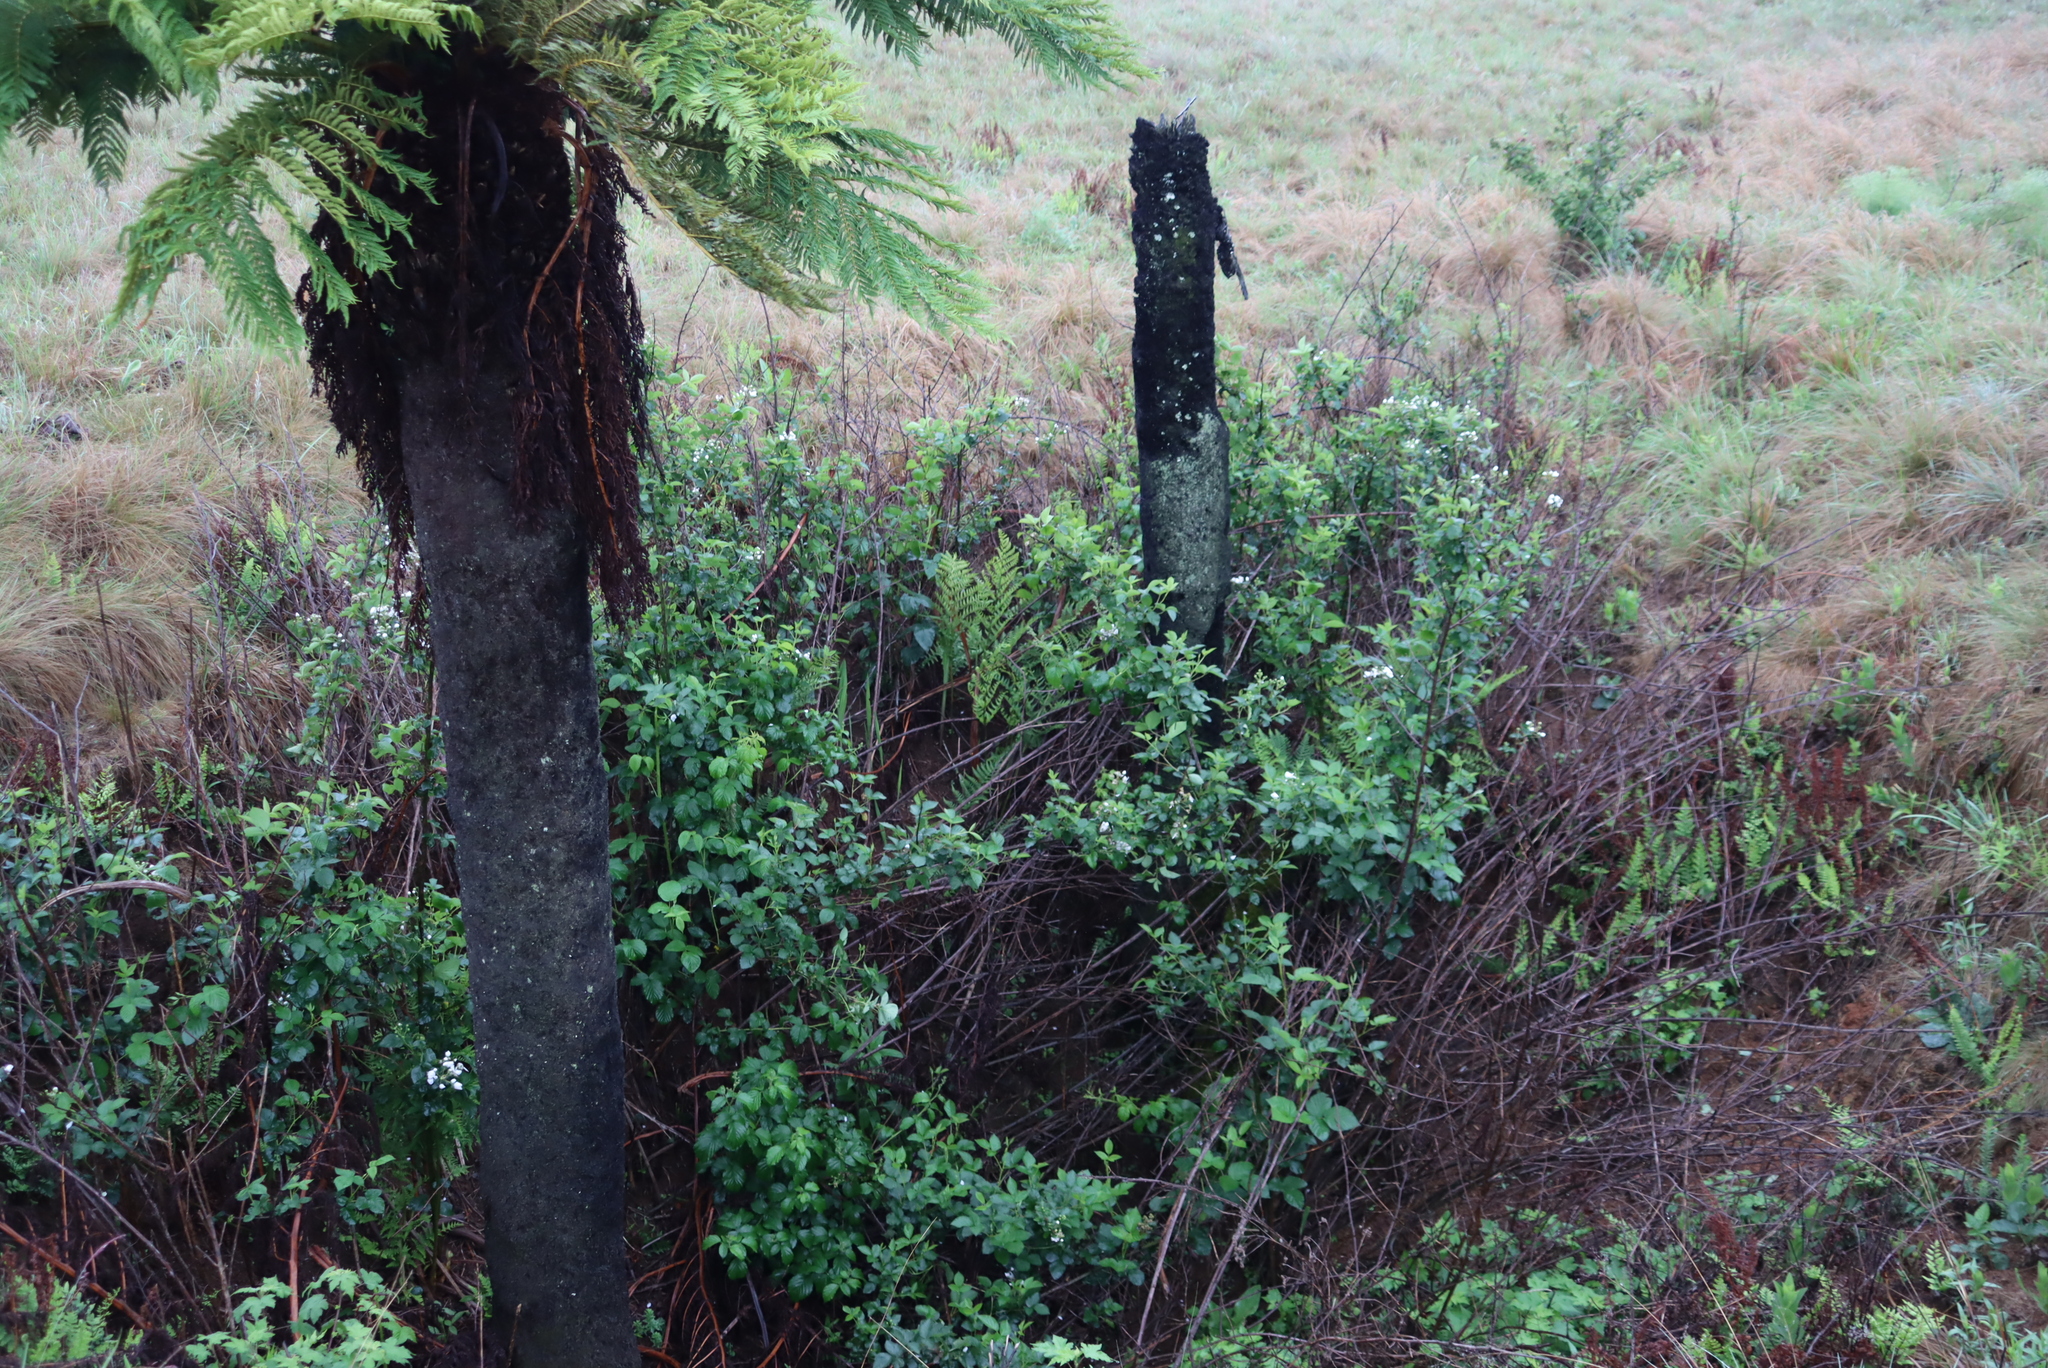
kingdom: Plantae
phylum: Tracheophyta
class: Polypodiopsida
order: Cyatheales
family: Cyatheaceae
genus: Alsophila
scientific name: Alsophila dregei
